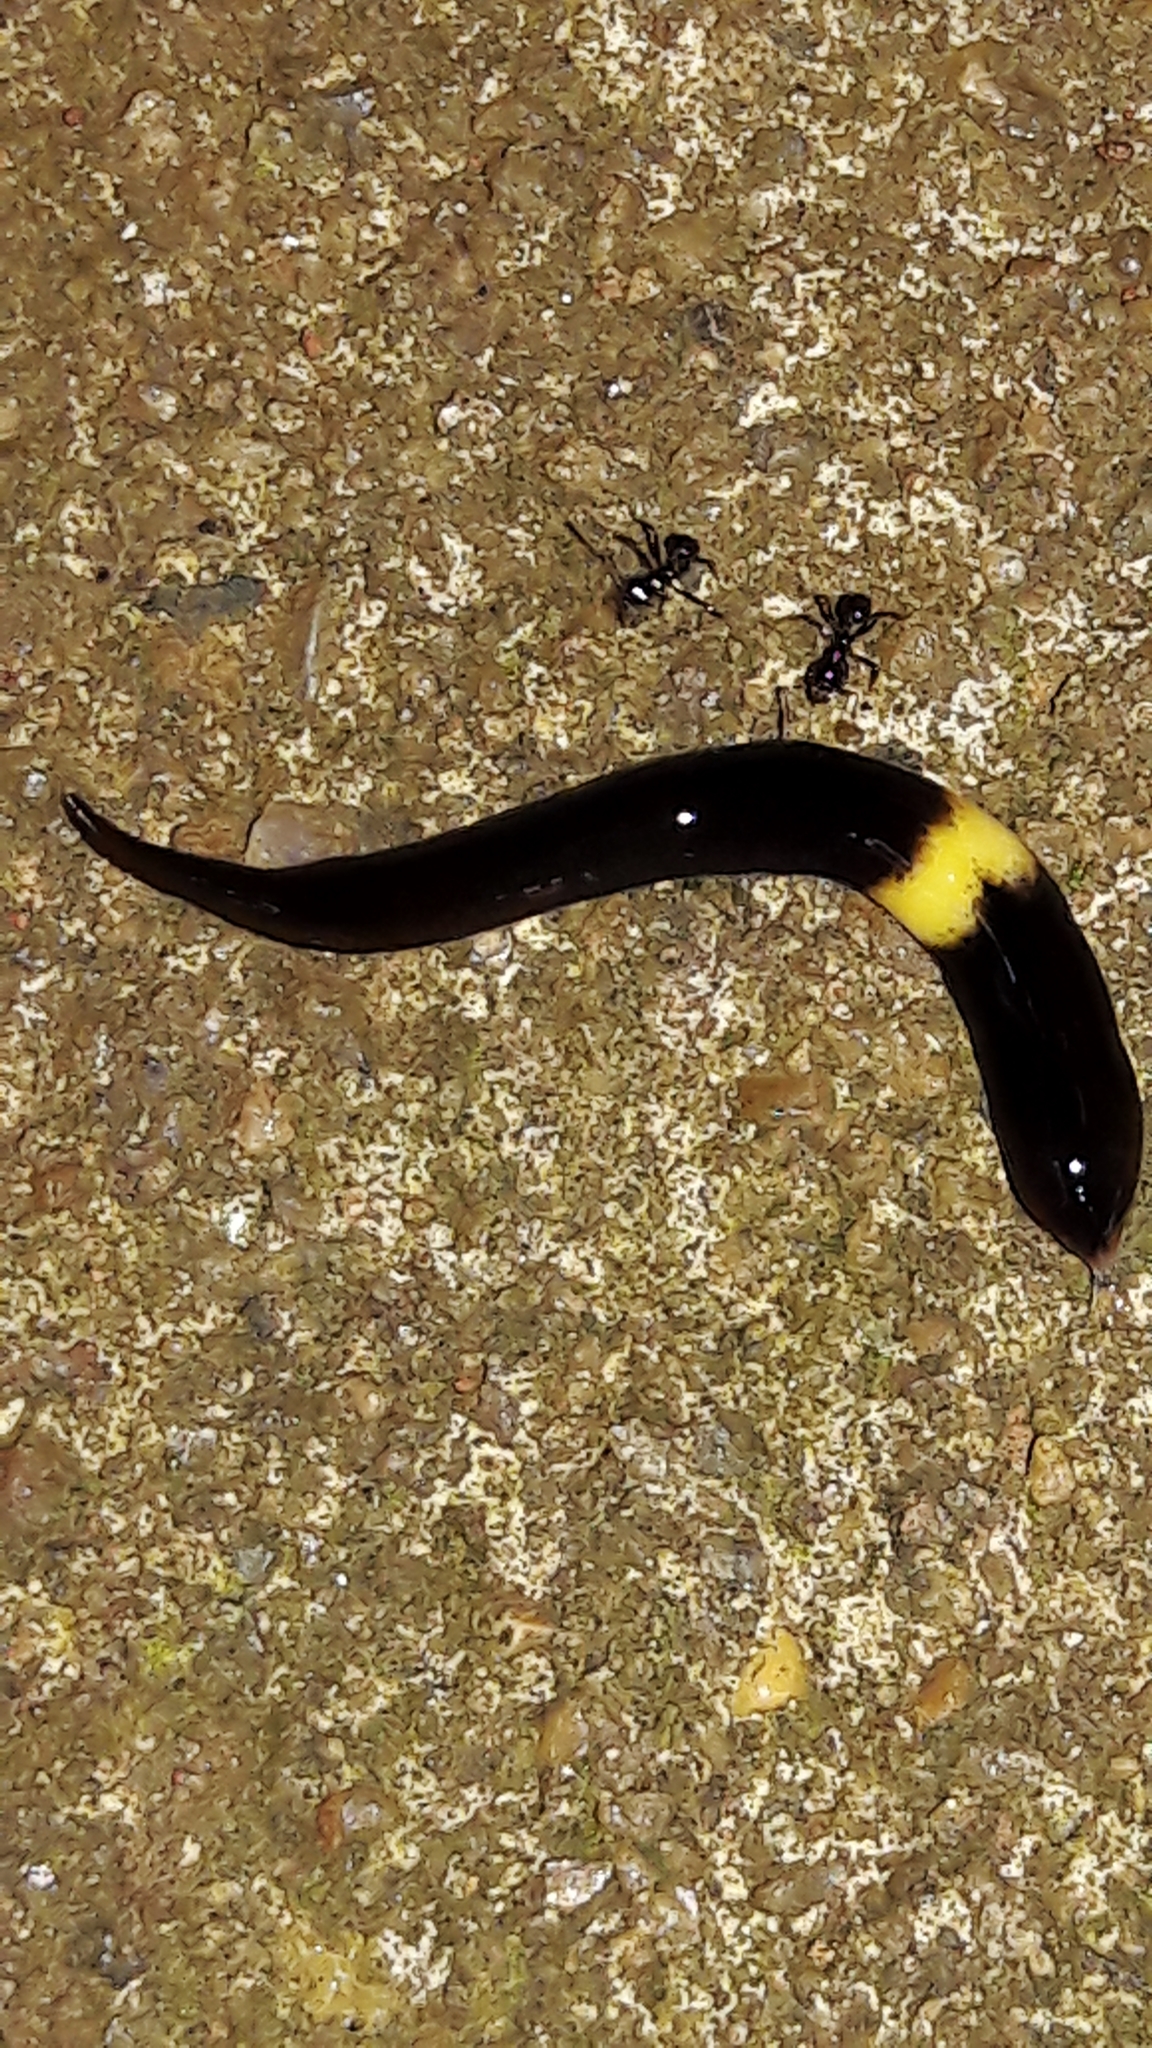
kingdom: Animalia
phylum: Platyhelminthes
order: Tricladida
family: Geoplanidae
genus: Paraba
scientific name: Paraba pankaru
